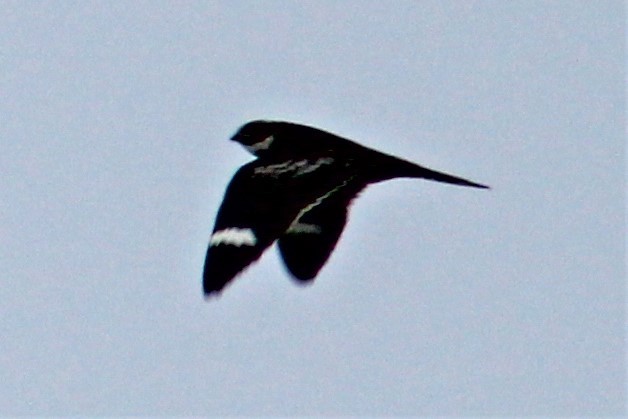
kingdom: Animalia
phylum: Chordata
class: Aves
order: Caprimulgiformes
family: Caprimulgidae
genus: Chordeiles
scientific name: Chordeiles minor
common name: Common nighthawk
